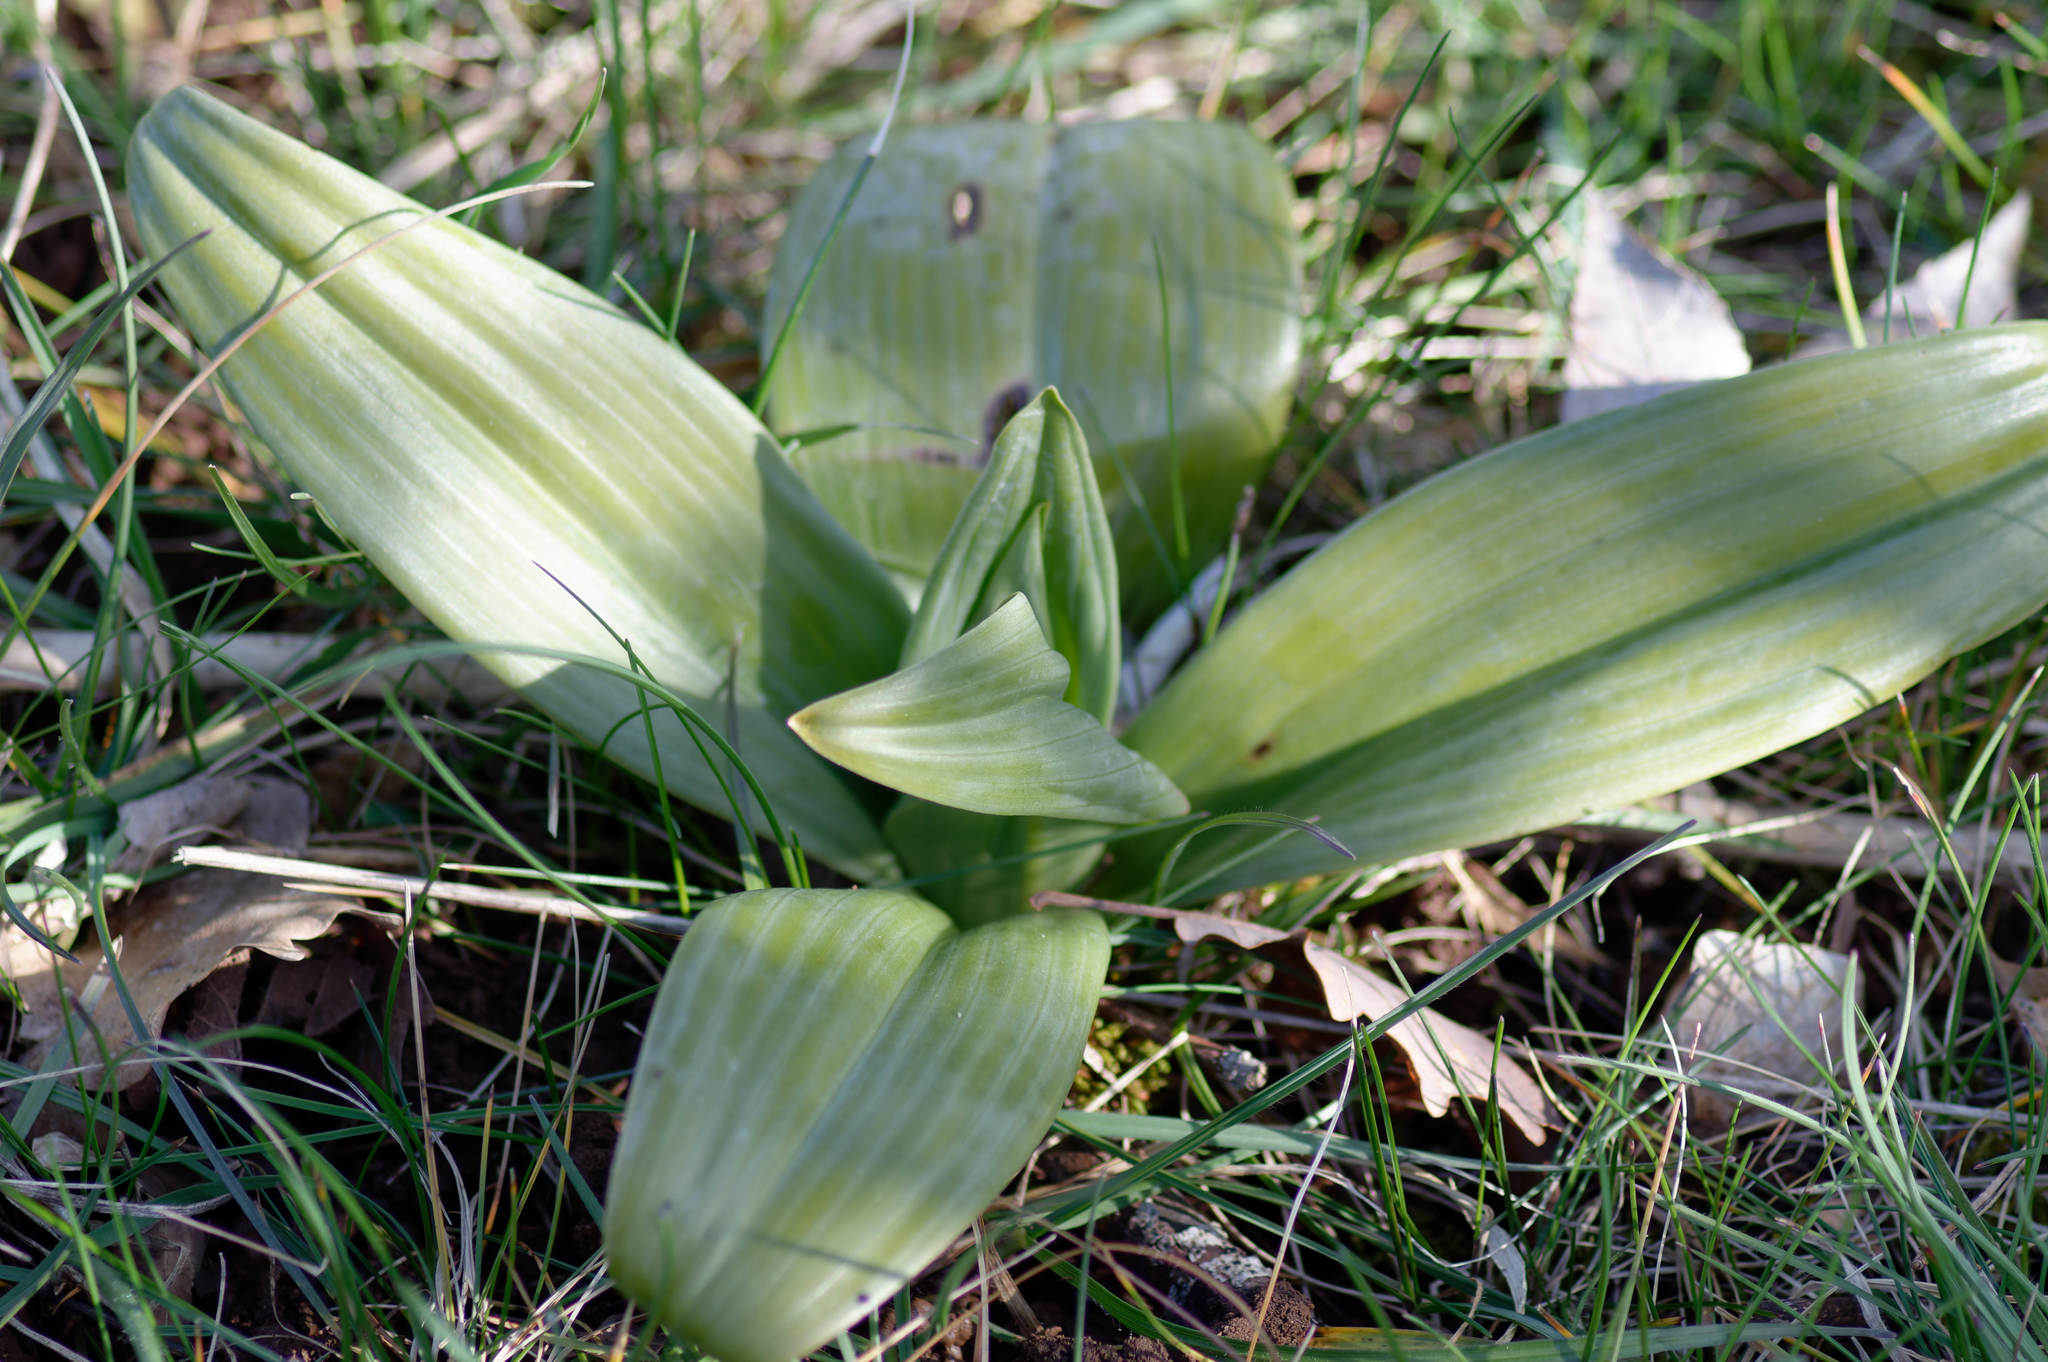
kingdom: Plantae
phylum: Tracheophyta
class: Liliopsida
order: Asparagales
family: Orchidaceae
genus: Himantoglossum
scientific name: Himantoglossum hircinum
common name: Lizard orchid
